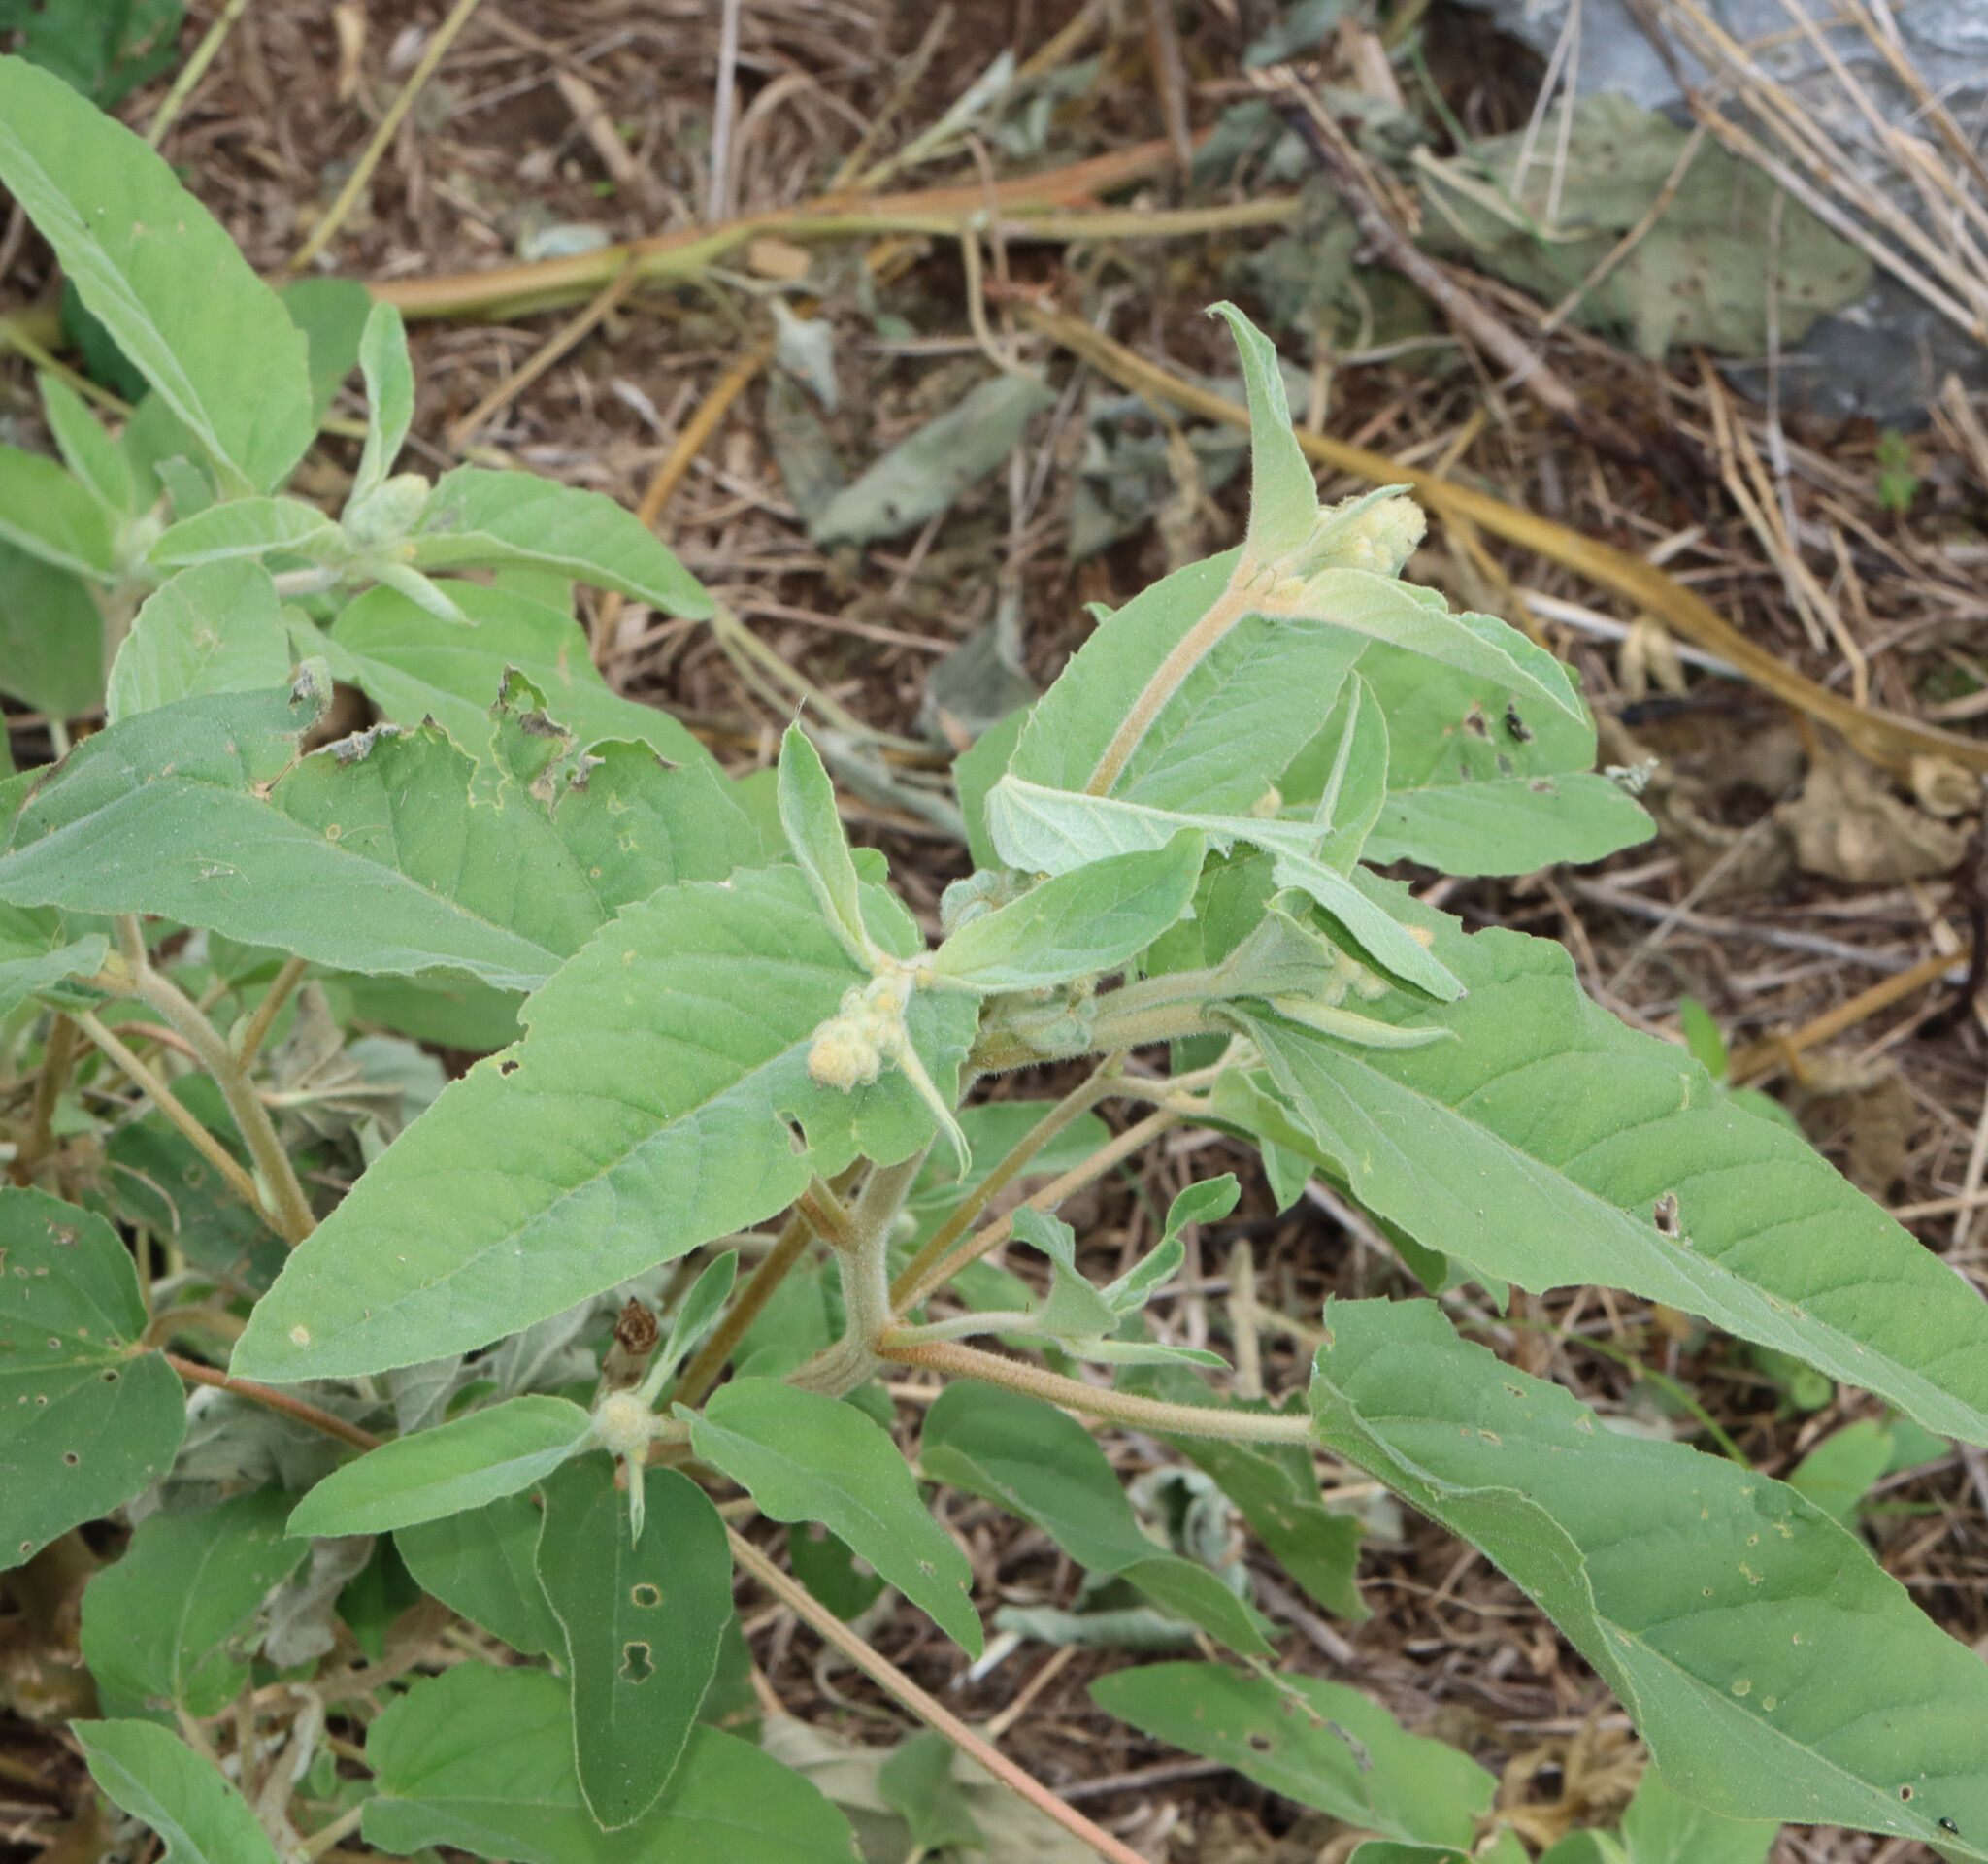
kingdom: Plantae
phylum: Tracheophyta
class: Magnoliopsida
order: Malpighiales
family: Euphorbiaceae
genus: Croton
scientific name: Croton lindheimeri
